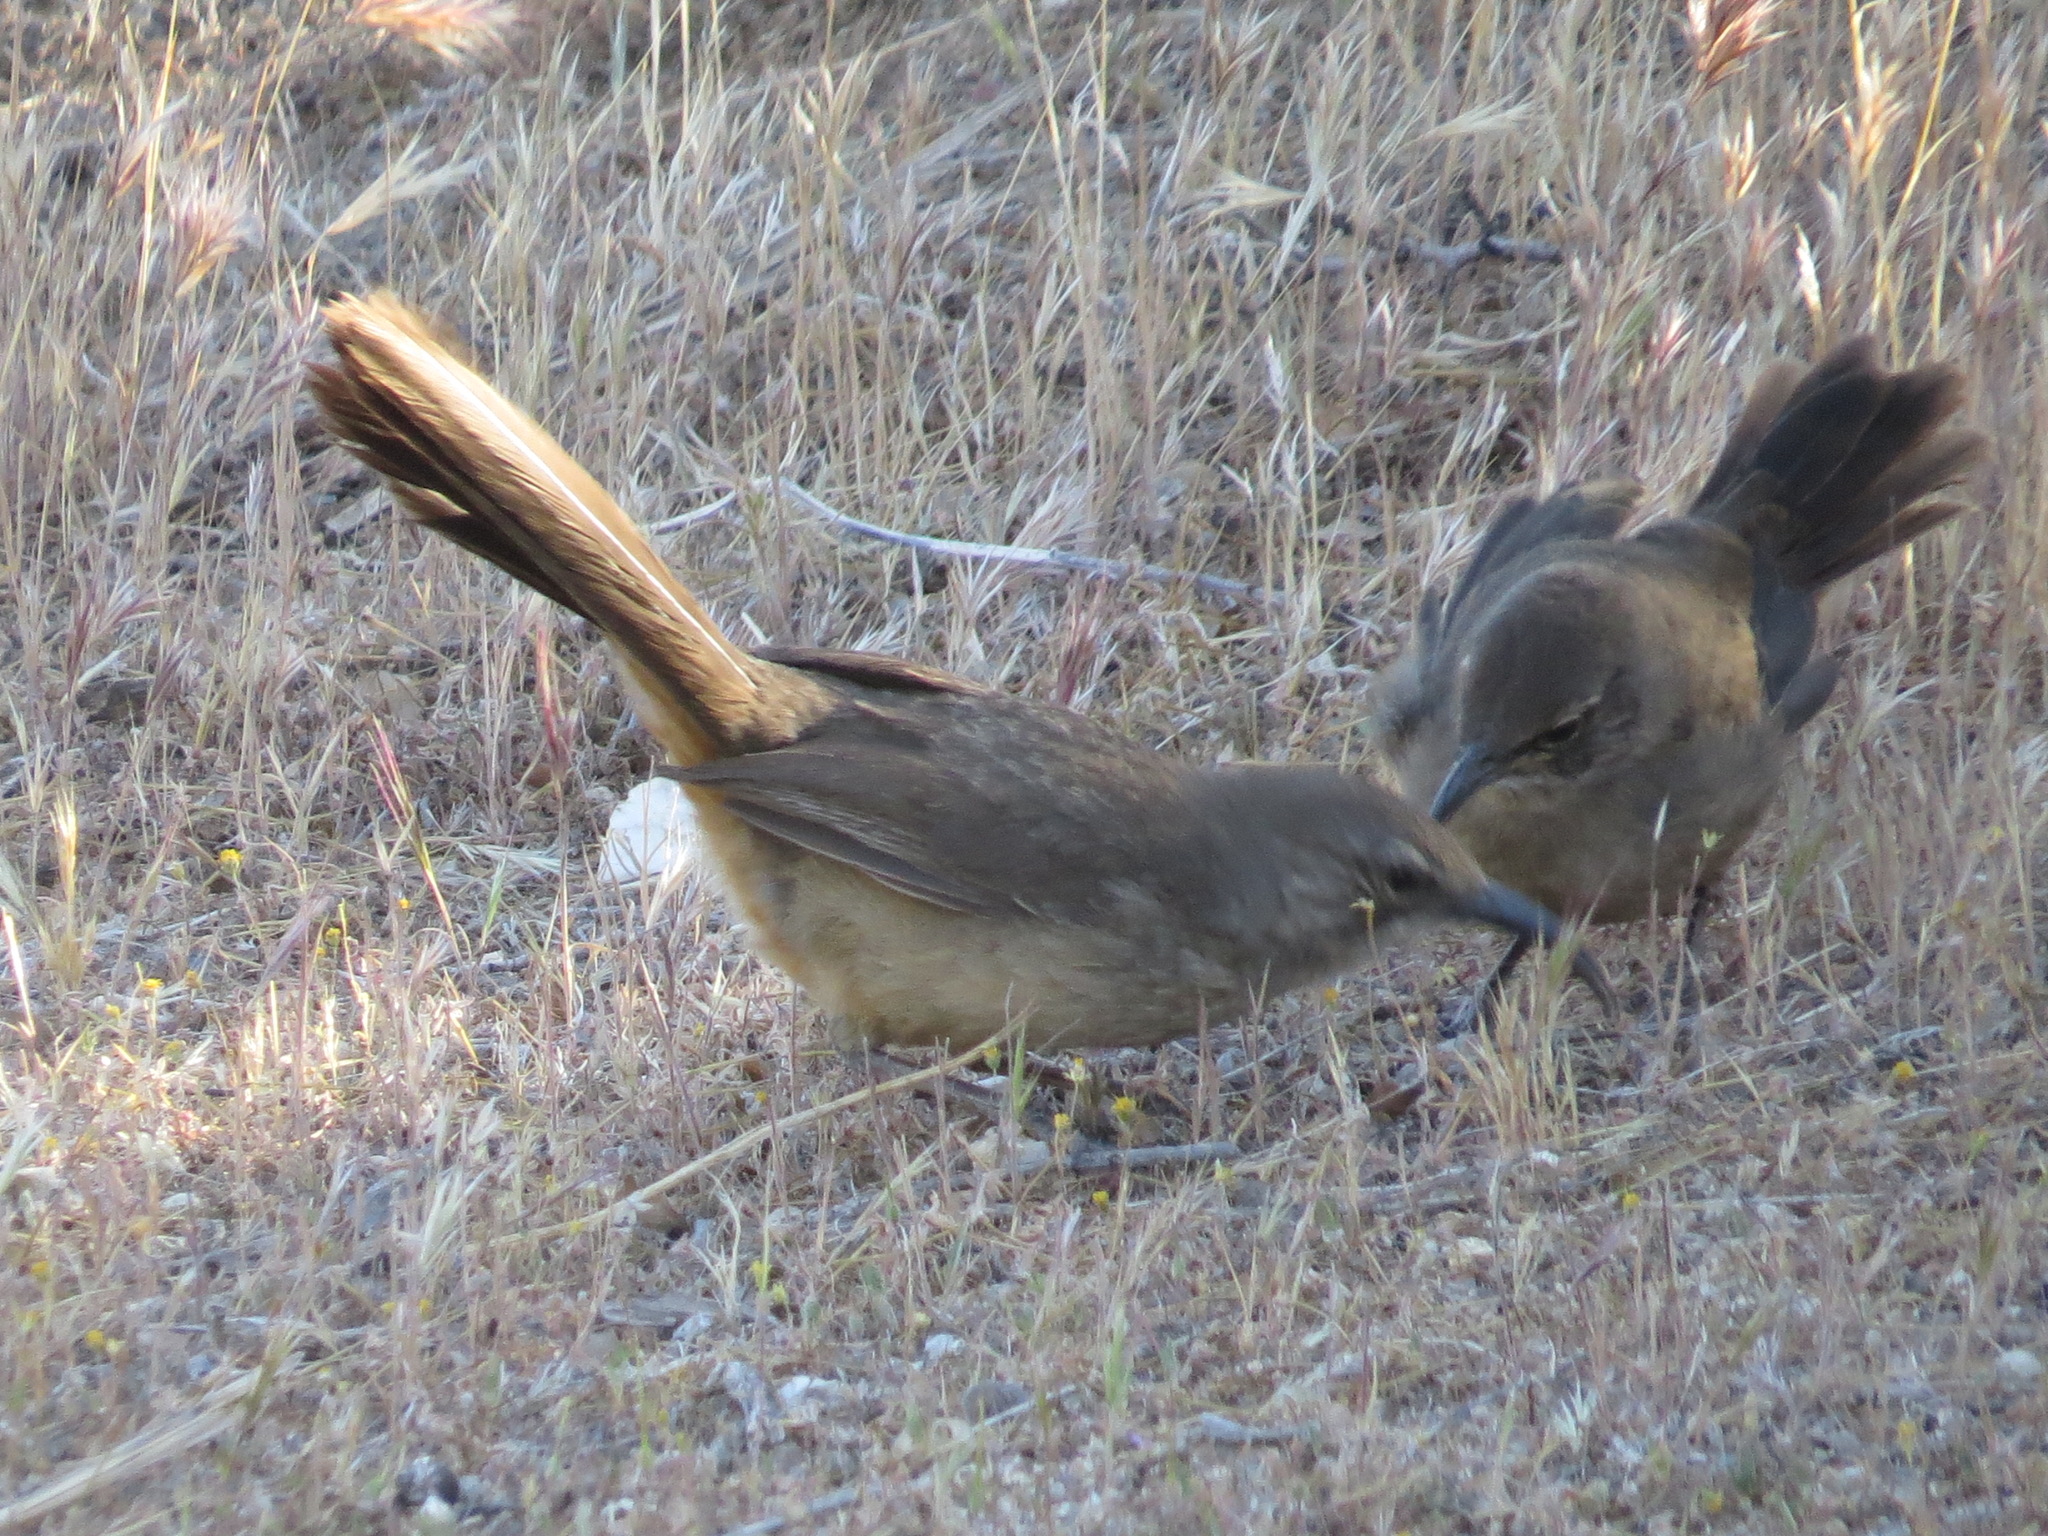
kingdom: Animalia
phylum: Chordata
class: Aves
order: Passeriformes
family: Mimidae
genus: Toxostoma
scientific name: Toxostoma redivivum
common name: California thrasher
